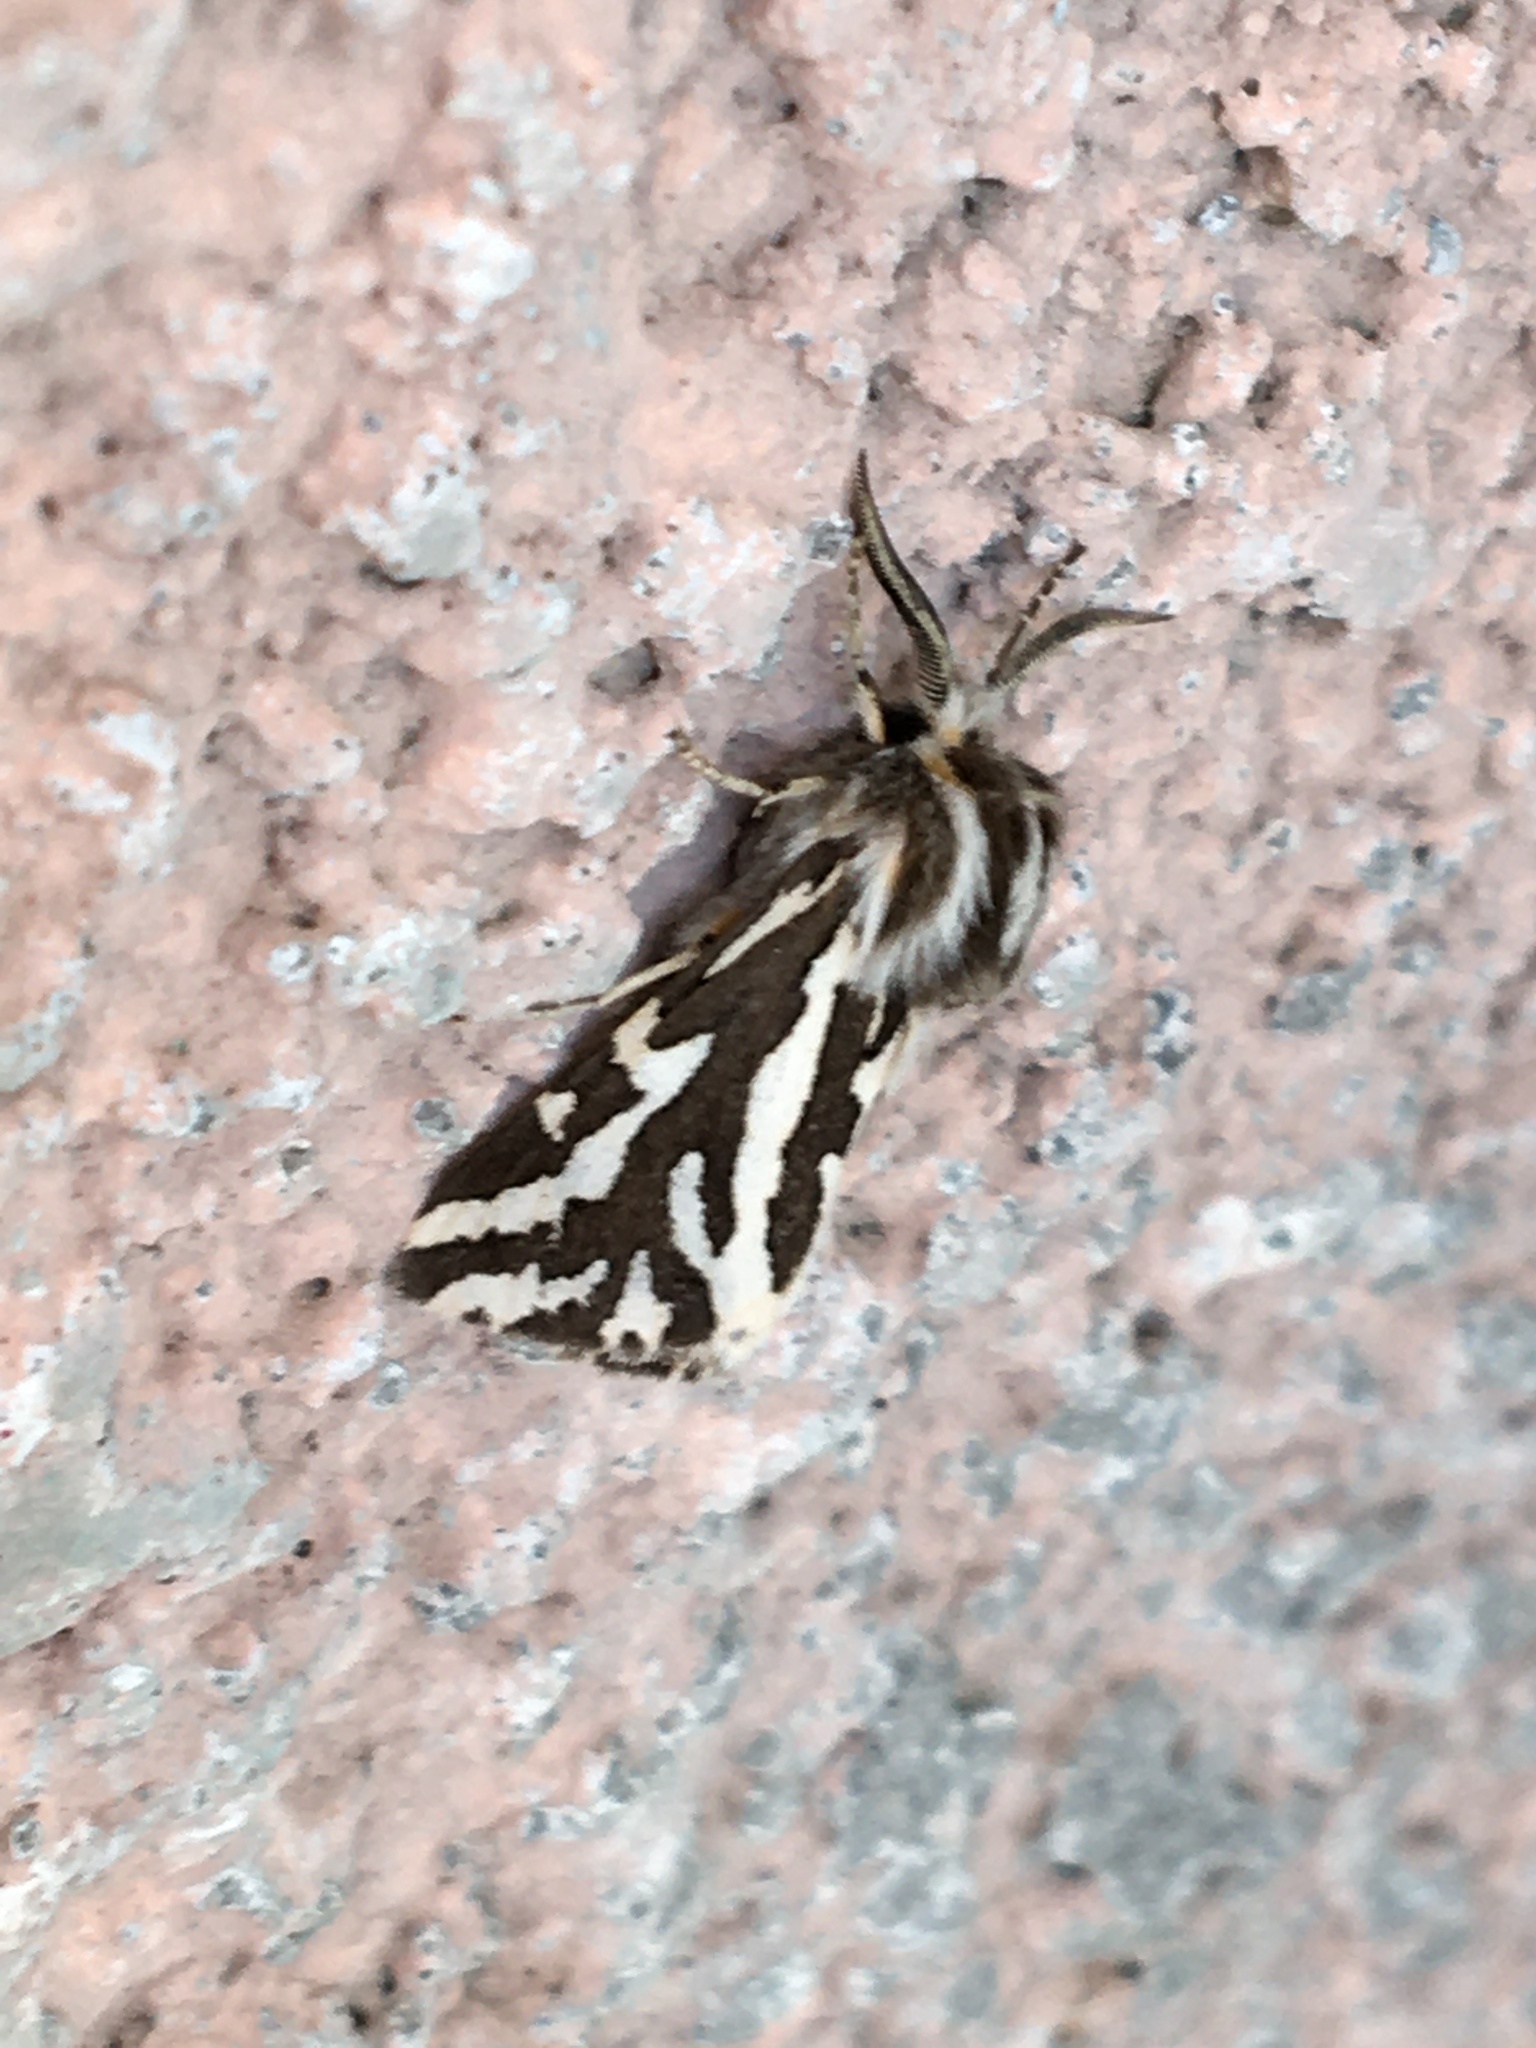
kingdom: Animalia
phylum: Arthropoda
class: Insecta
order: Lepidoptera
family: Erebidae
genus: Paralacydes
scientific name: Paralacydes vocula
